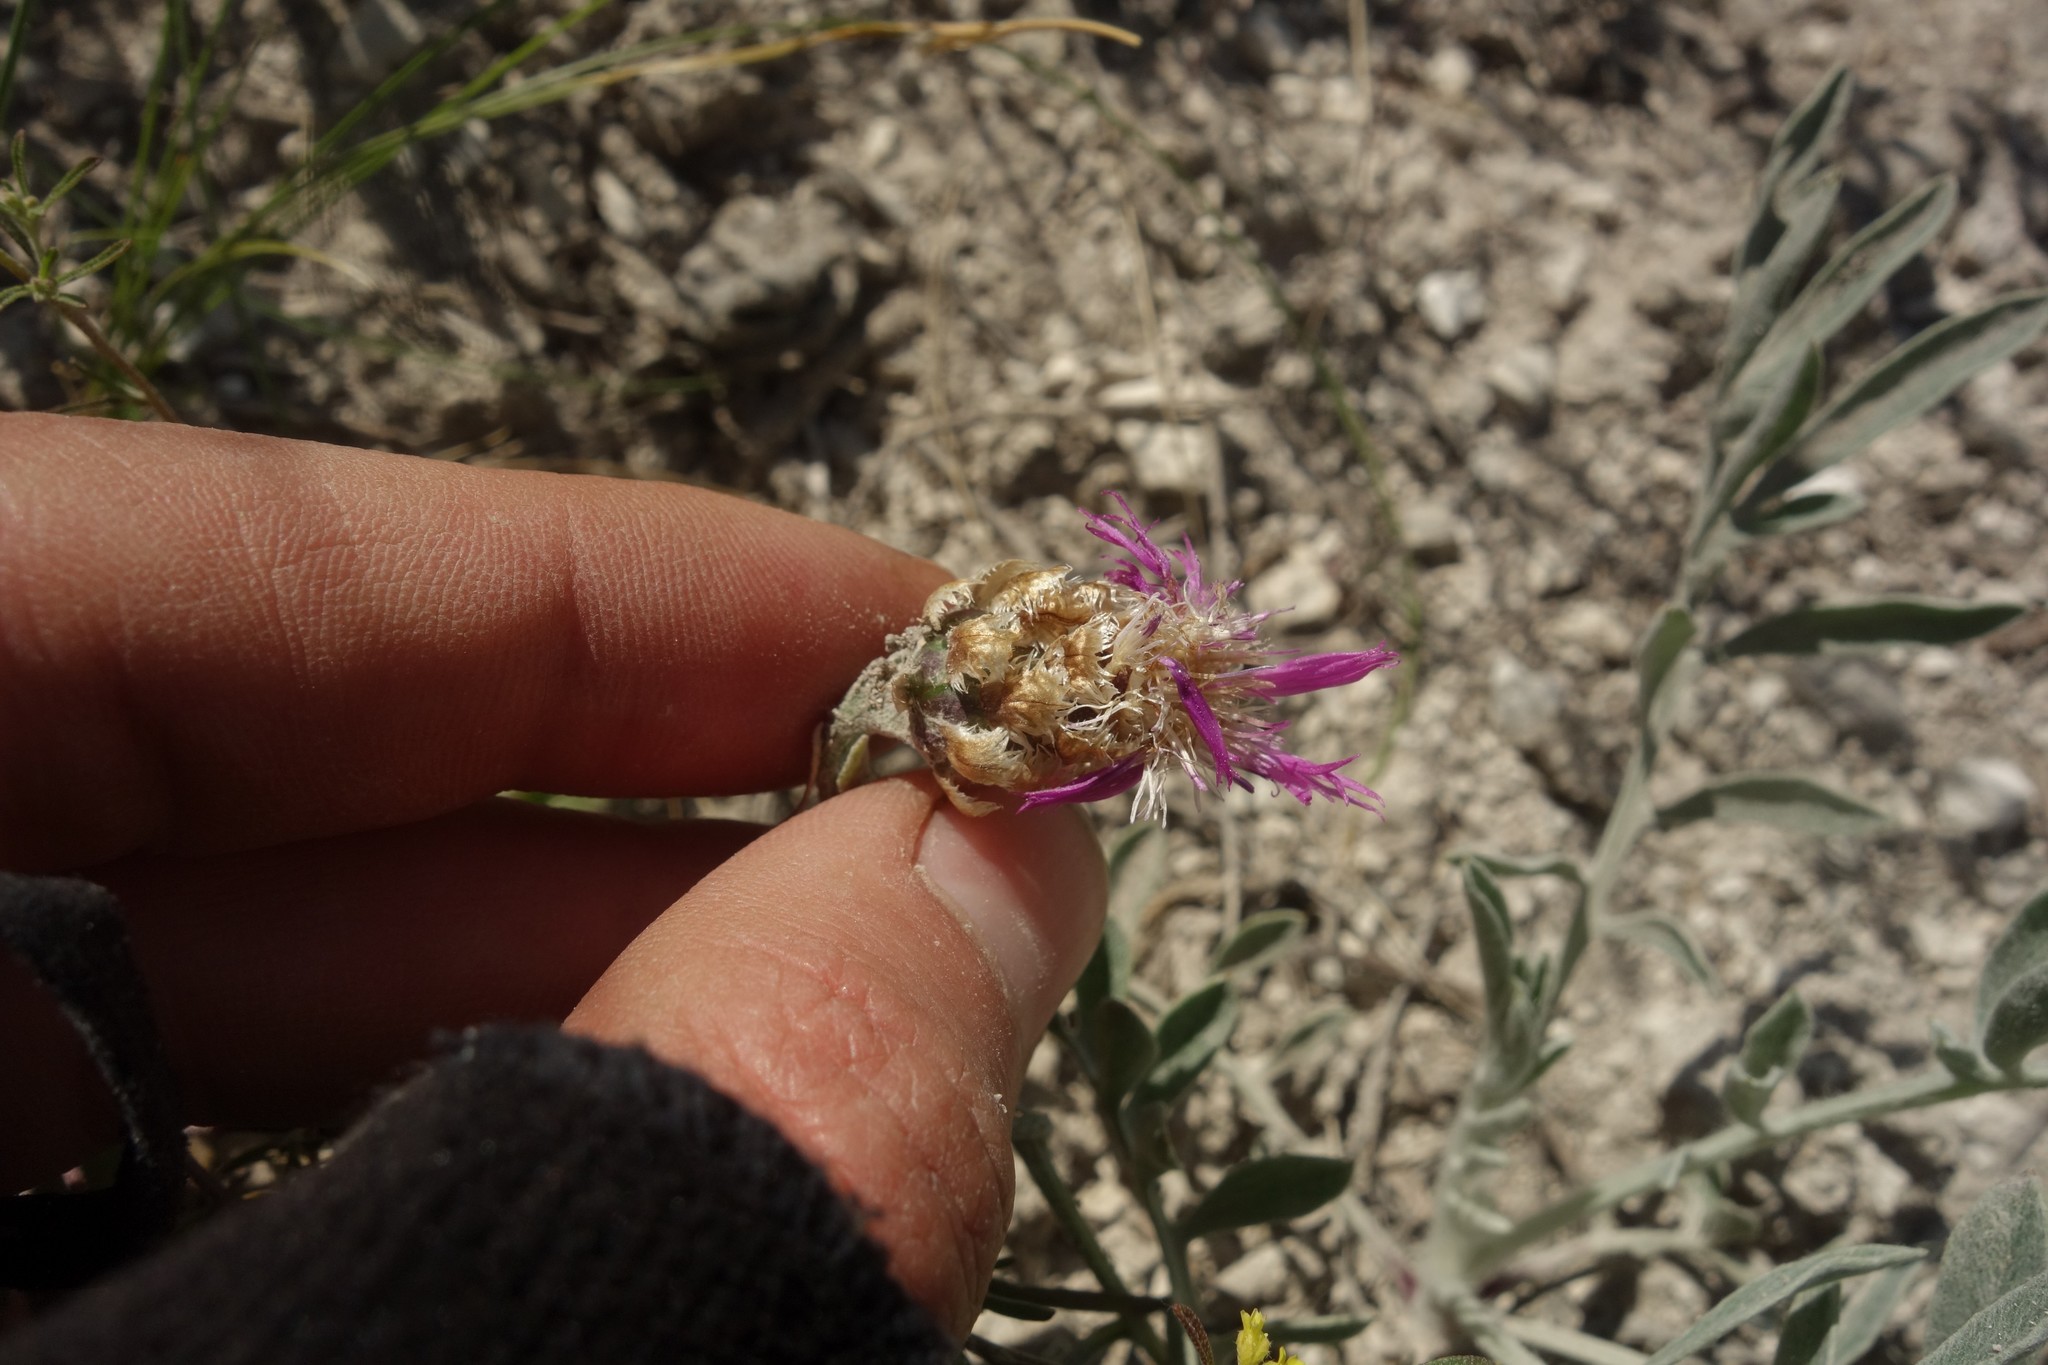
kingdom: Plantae
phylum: Tracheophyta
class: Magnoliopsida
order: Asterales
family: Asteraceae
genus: Psephellus
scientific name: Psephellus marschallianus
